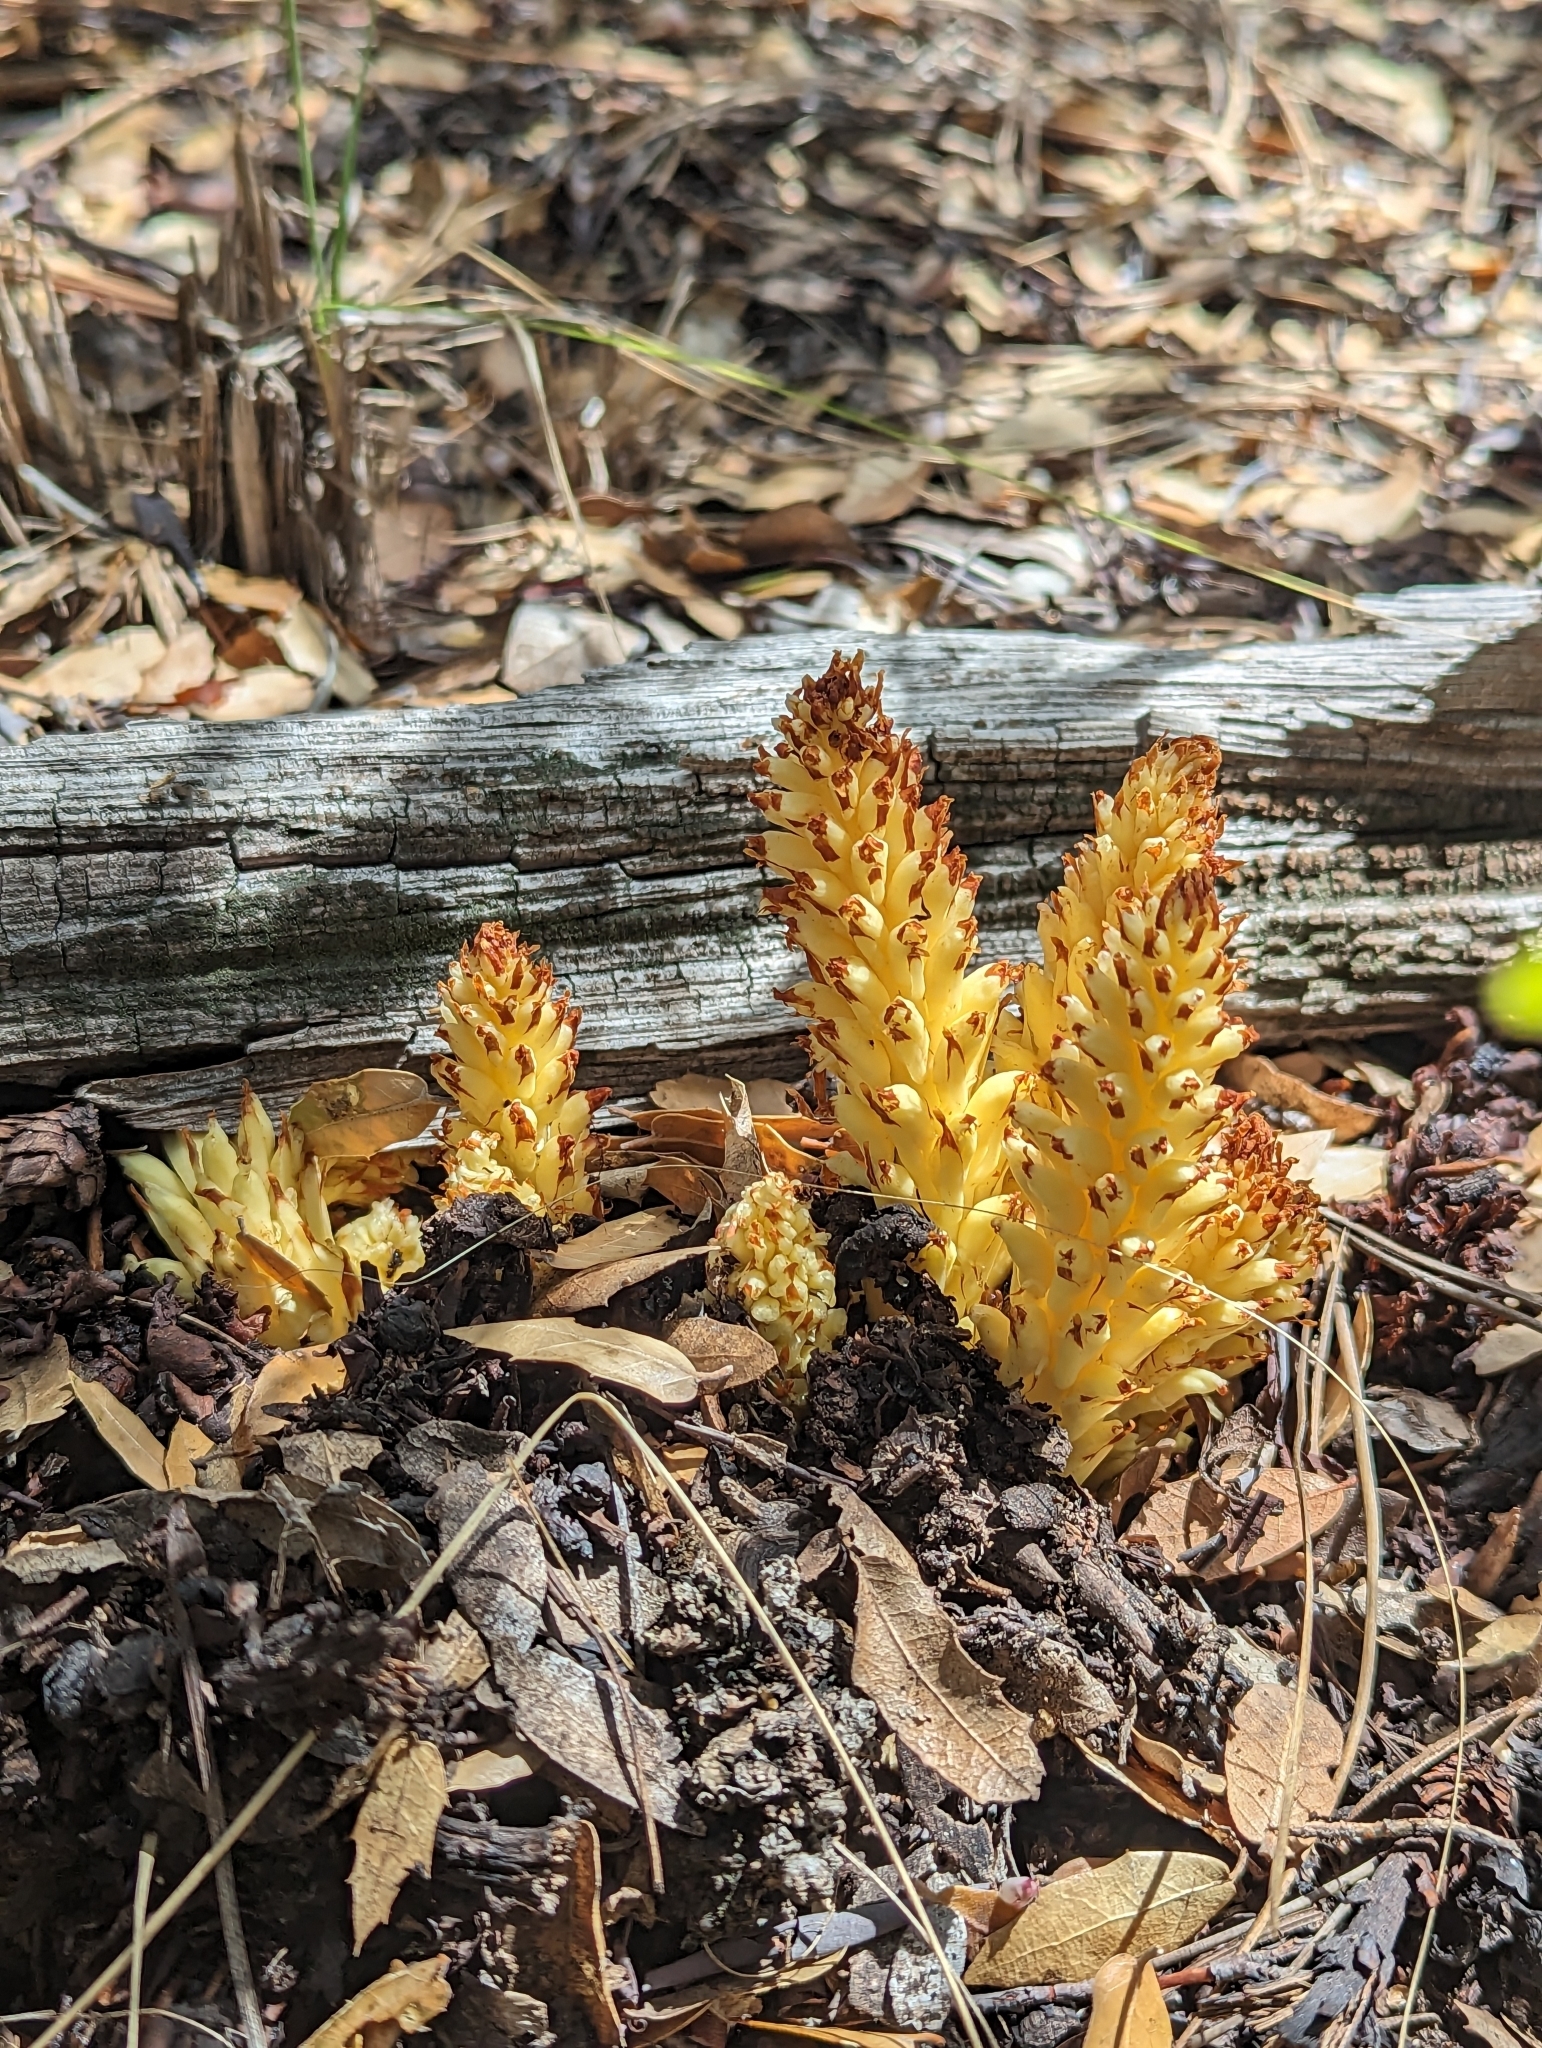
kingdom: Plantae
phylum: Tracheophyta
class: Magnoliopsida
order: Lamiales
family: Orobanchaceae
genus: Conopholis
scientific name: Conopholis alpina
